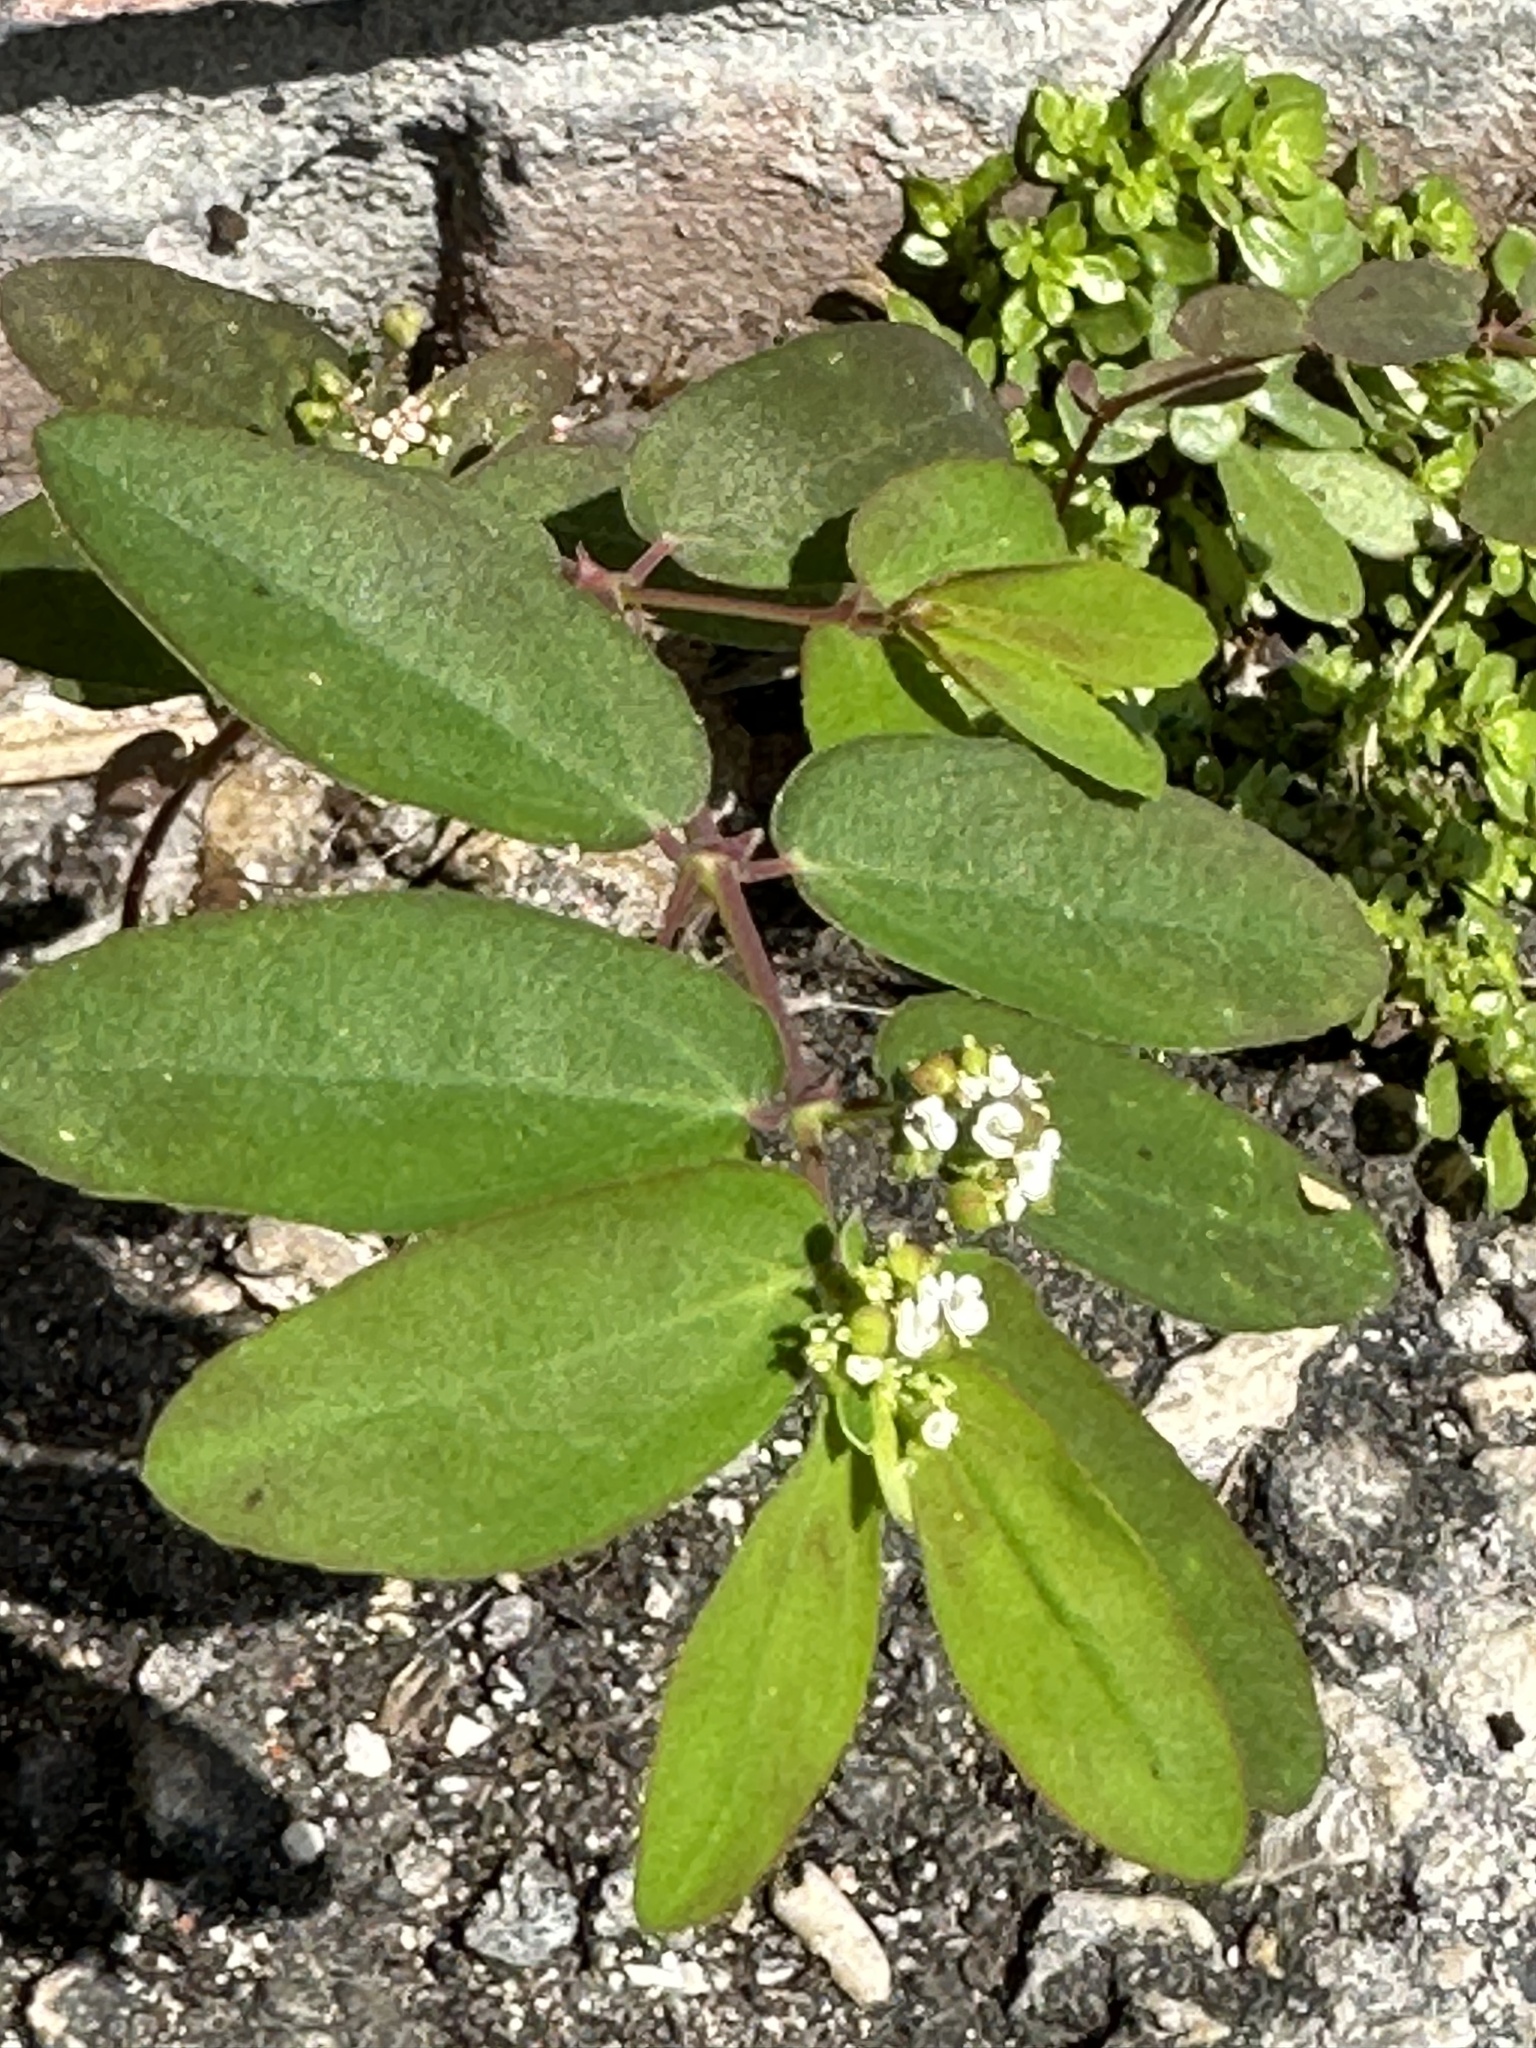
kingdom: Plantae
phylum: Tracheophyta
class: Magnoliopsida
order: Malpighiales
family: Euphorbiaceae
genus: Euphorbia
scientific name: Euphorbia hypericifolia
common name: Graceful sandmat
